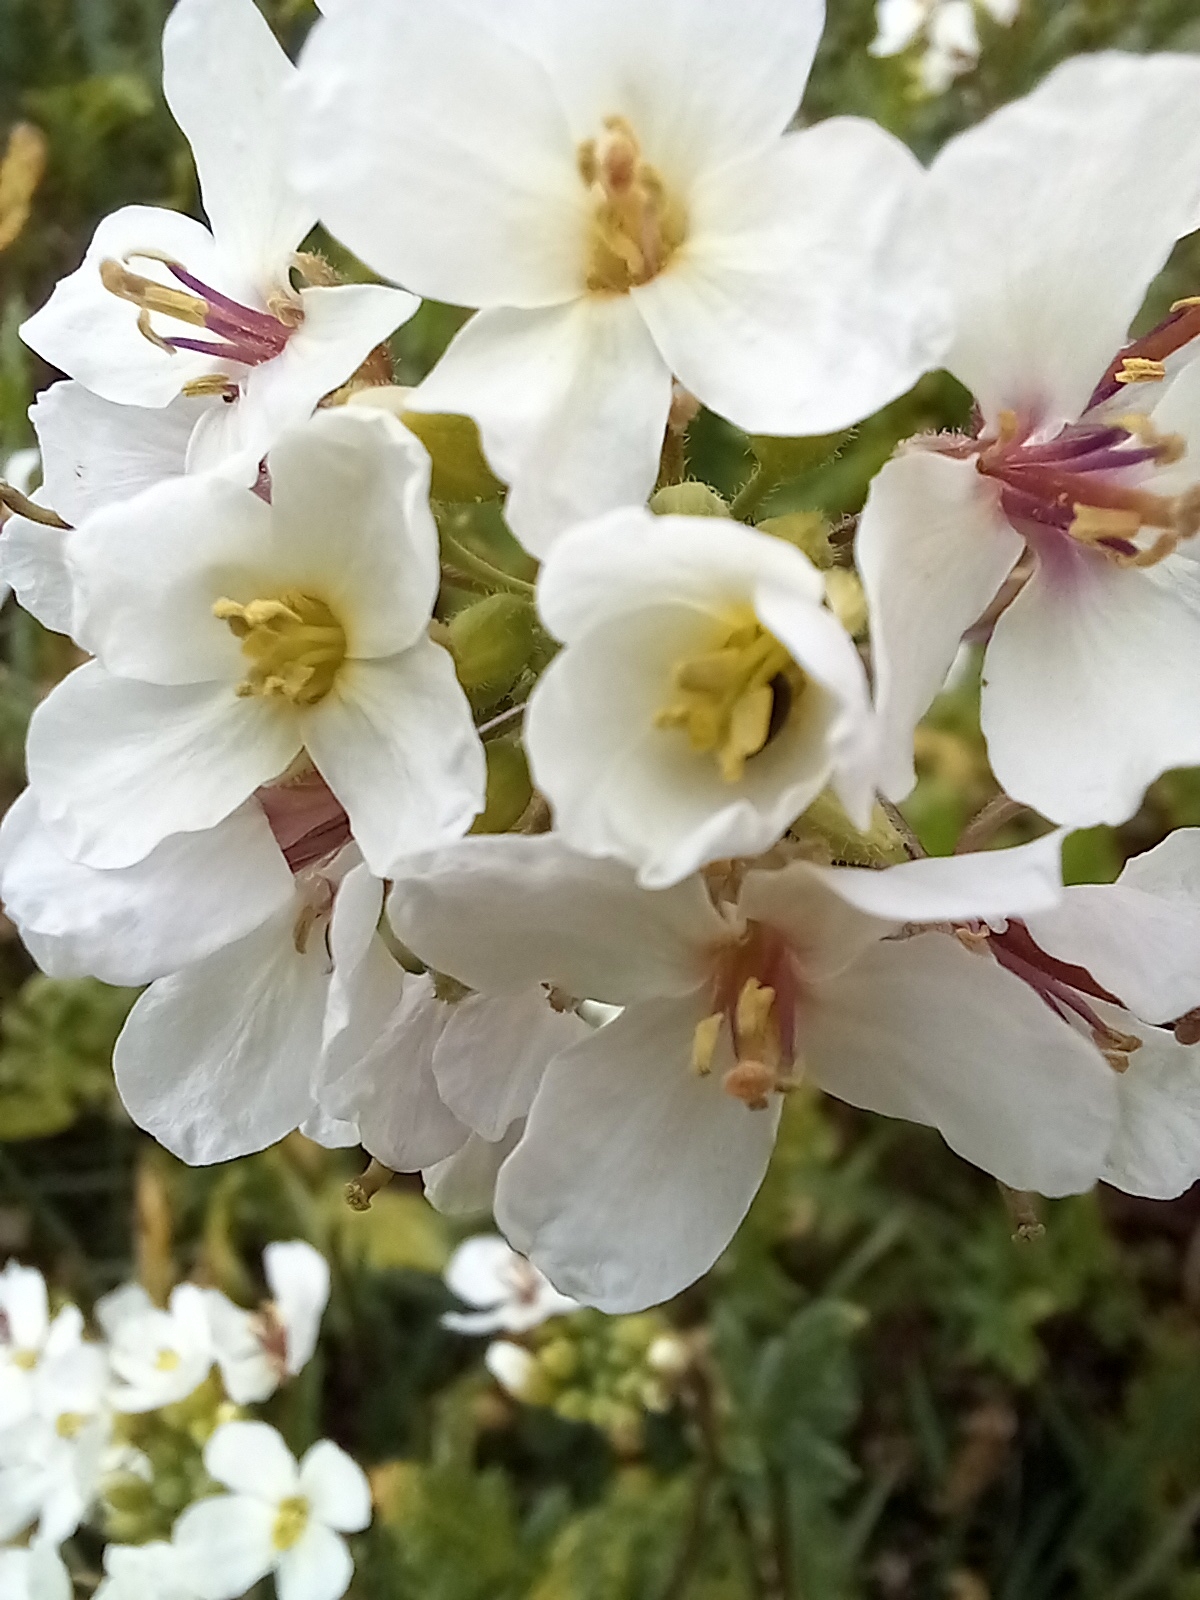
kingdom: Plantae
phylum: Tracheophyta
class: Magnoliopsida
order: Brassicales
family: Brassicaceae
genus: Diplotaxis
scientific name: Diplotaxis erucoides
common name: White rocket
